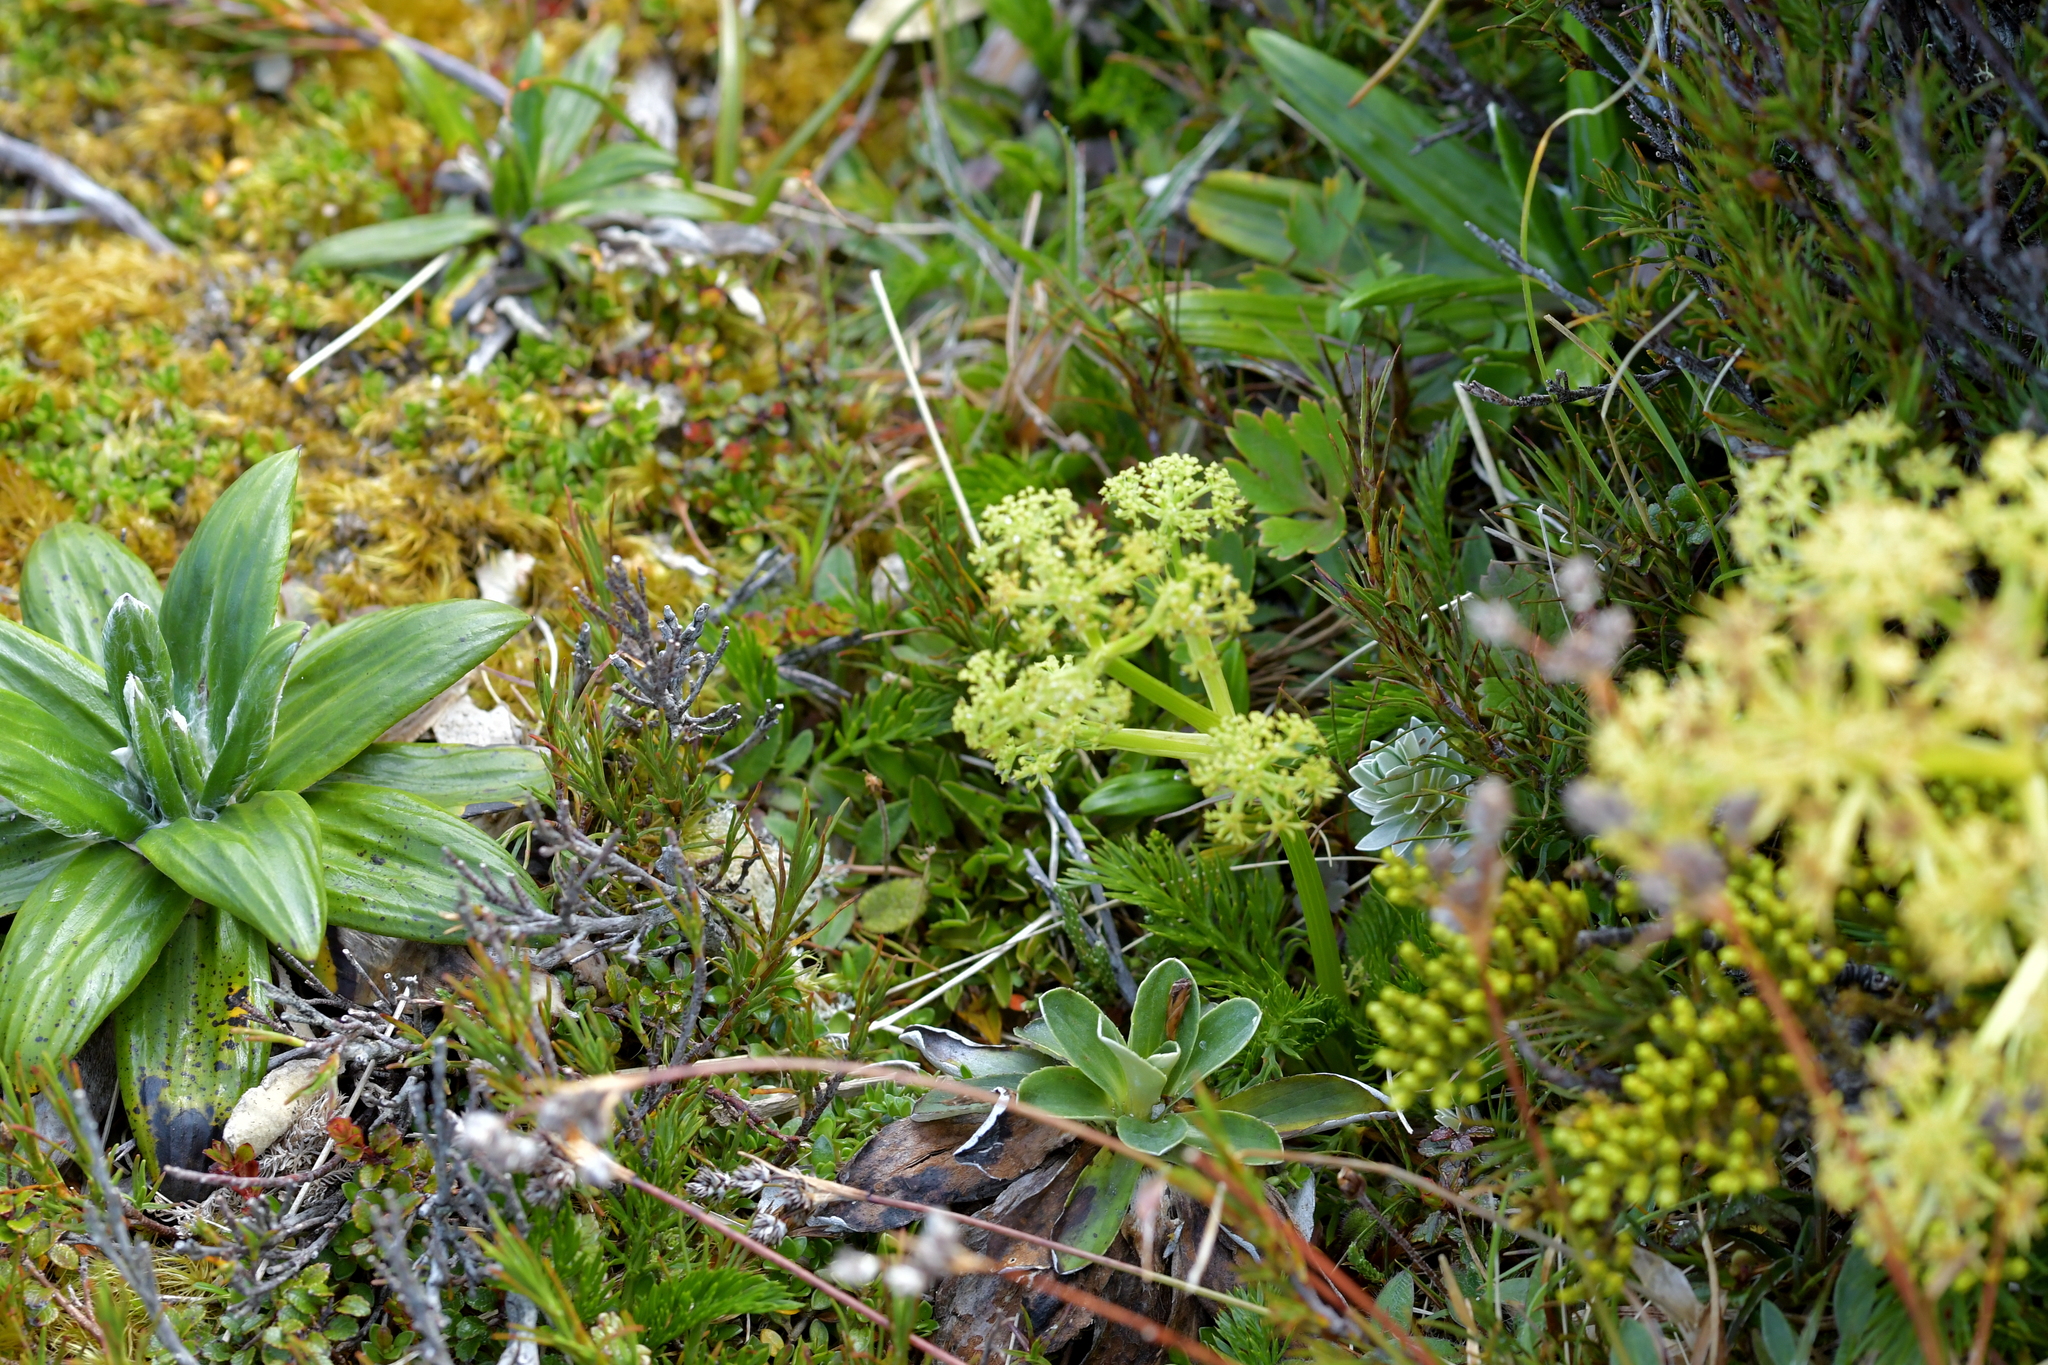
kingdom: Plantae
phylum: Tracheophyta
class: Magnoliopsida
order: Apiales
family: Apiaceae
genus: Aciphylla
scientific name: Aciphylla dissecta
